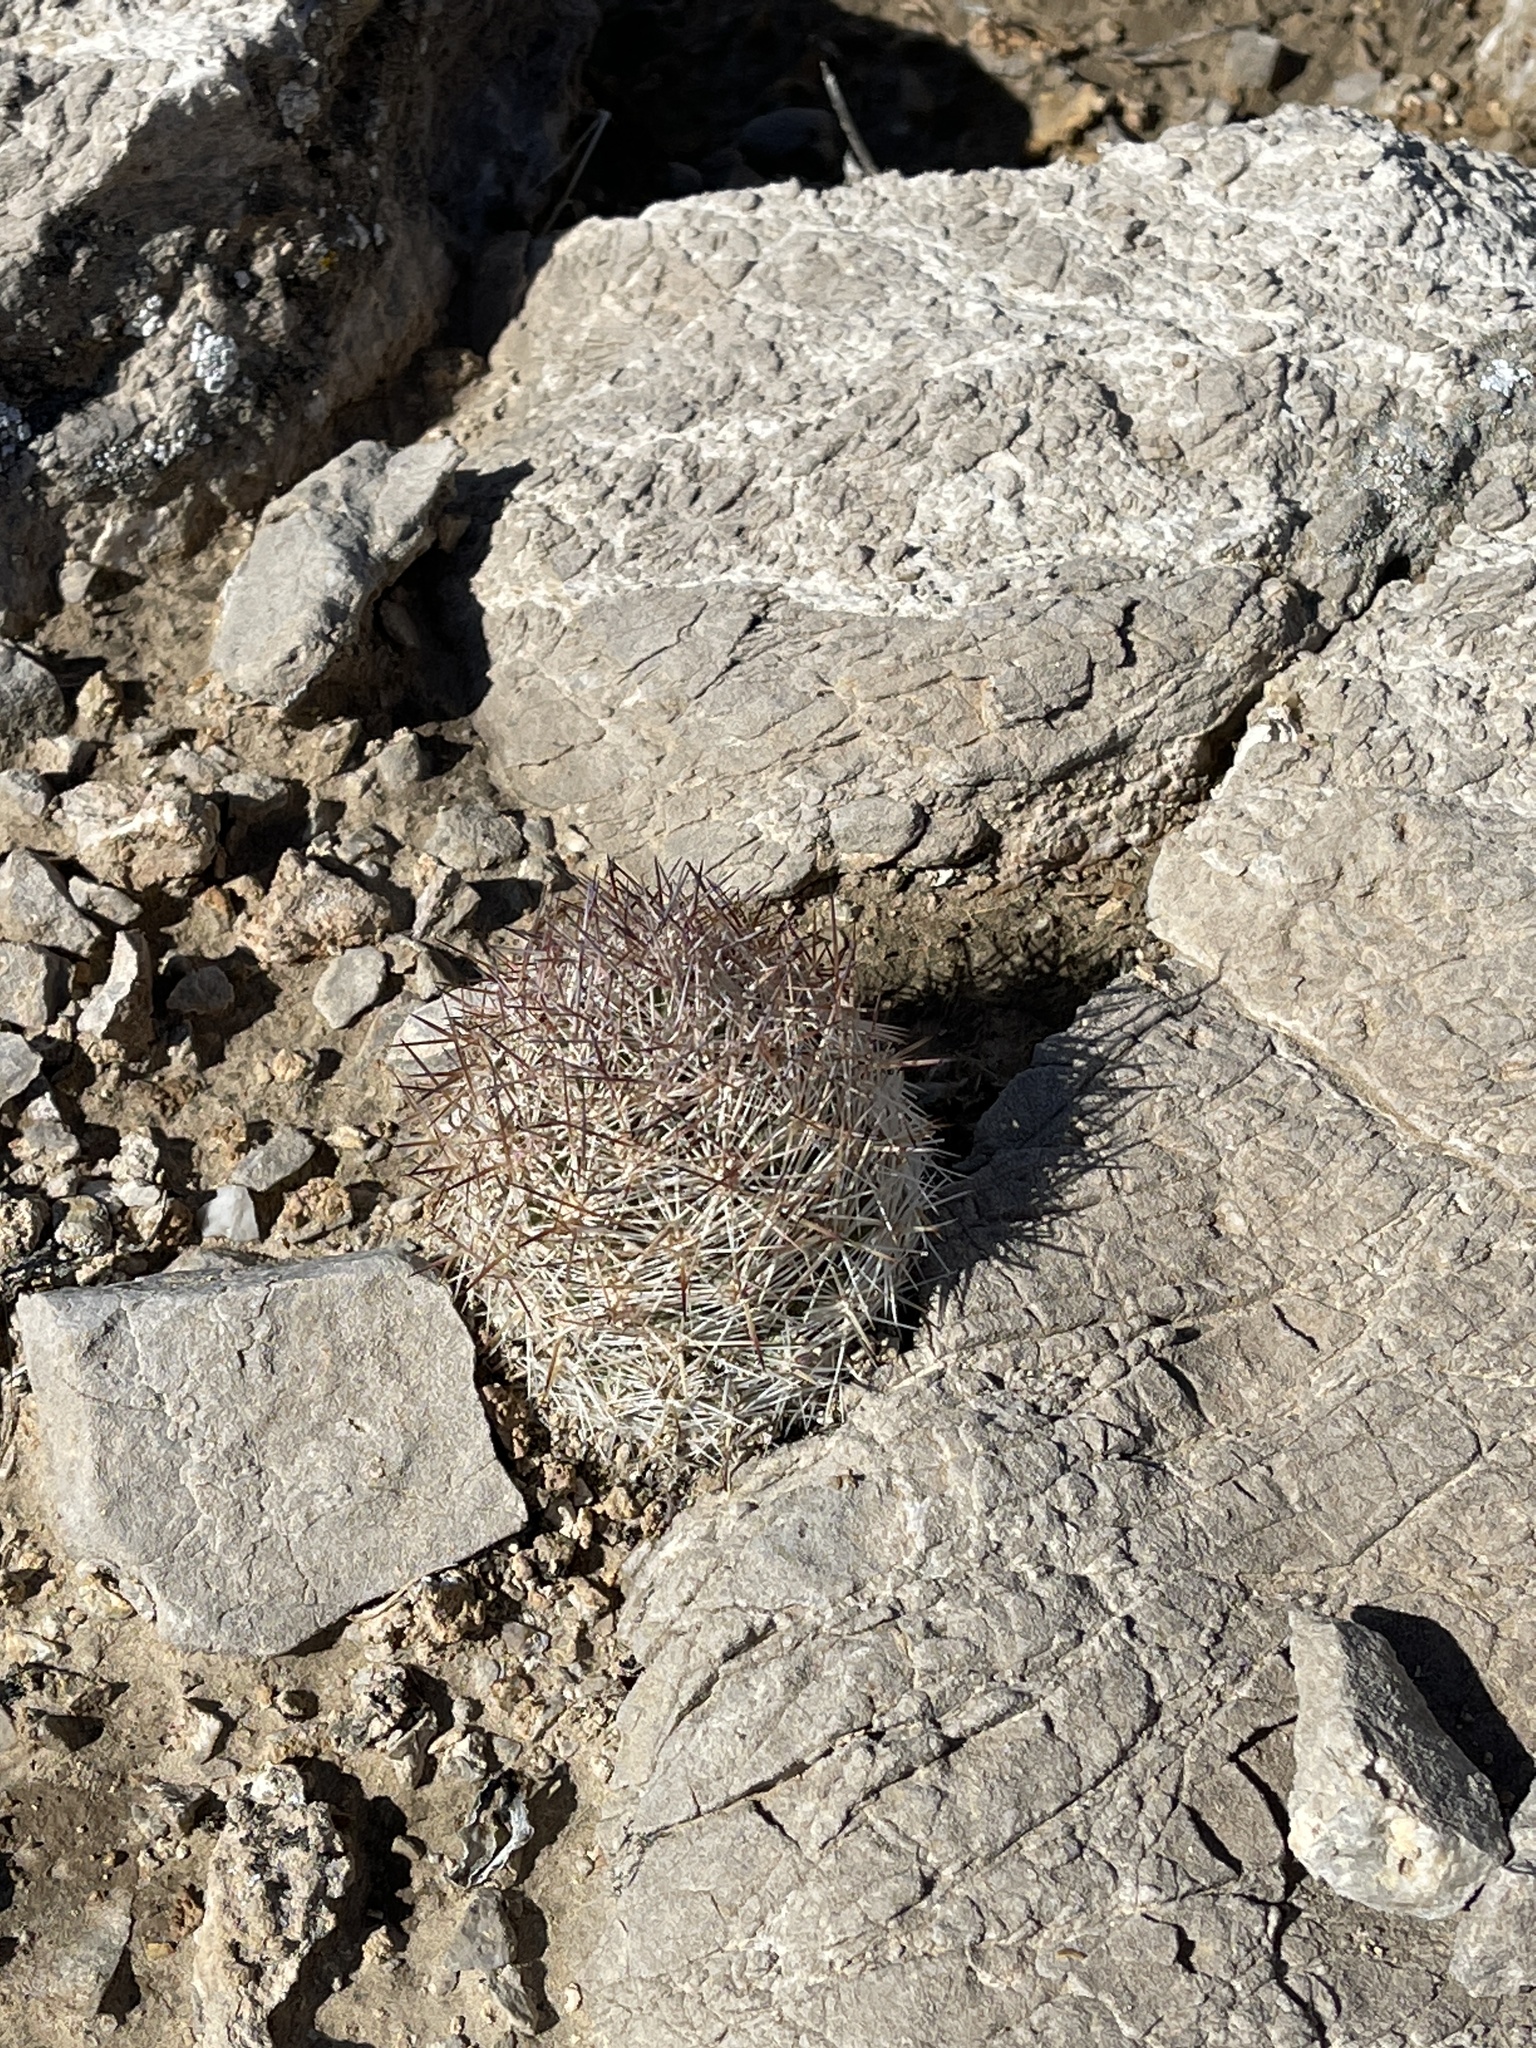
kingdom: Plantae
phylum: Tracheophyta
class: Magnoliopsida
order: Caryophyllales
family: Cactaceae
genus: Pelecyphora
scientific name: Pelecyphora dasyacantha
